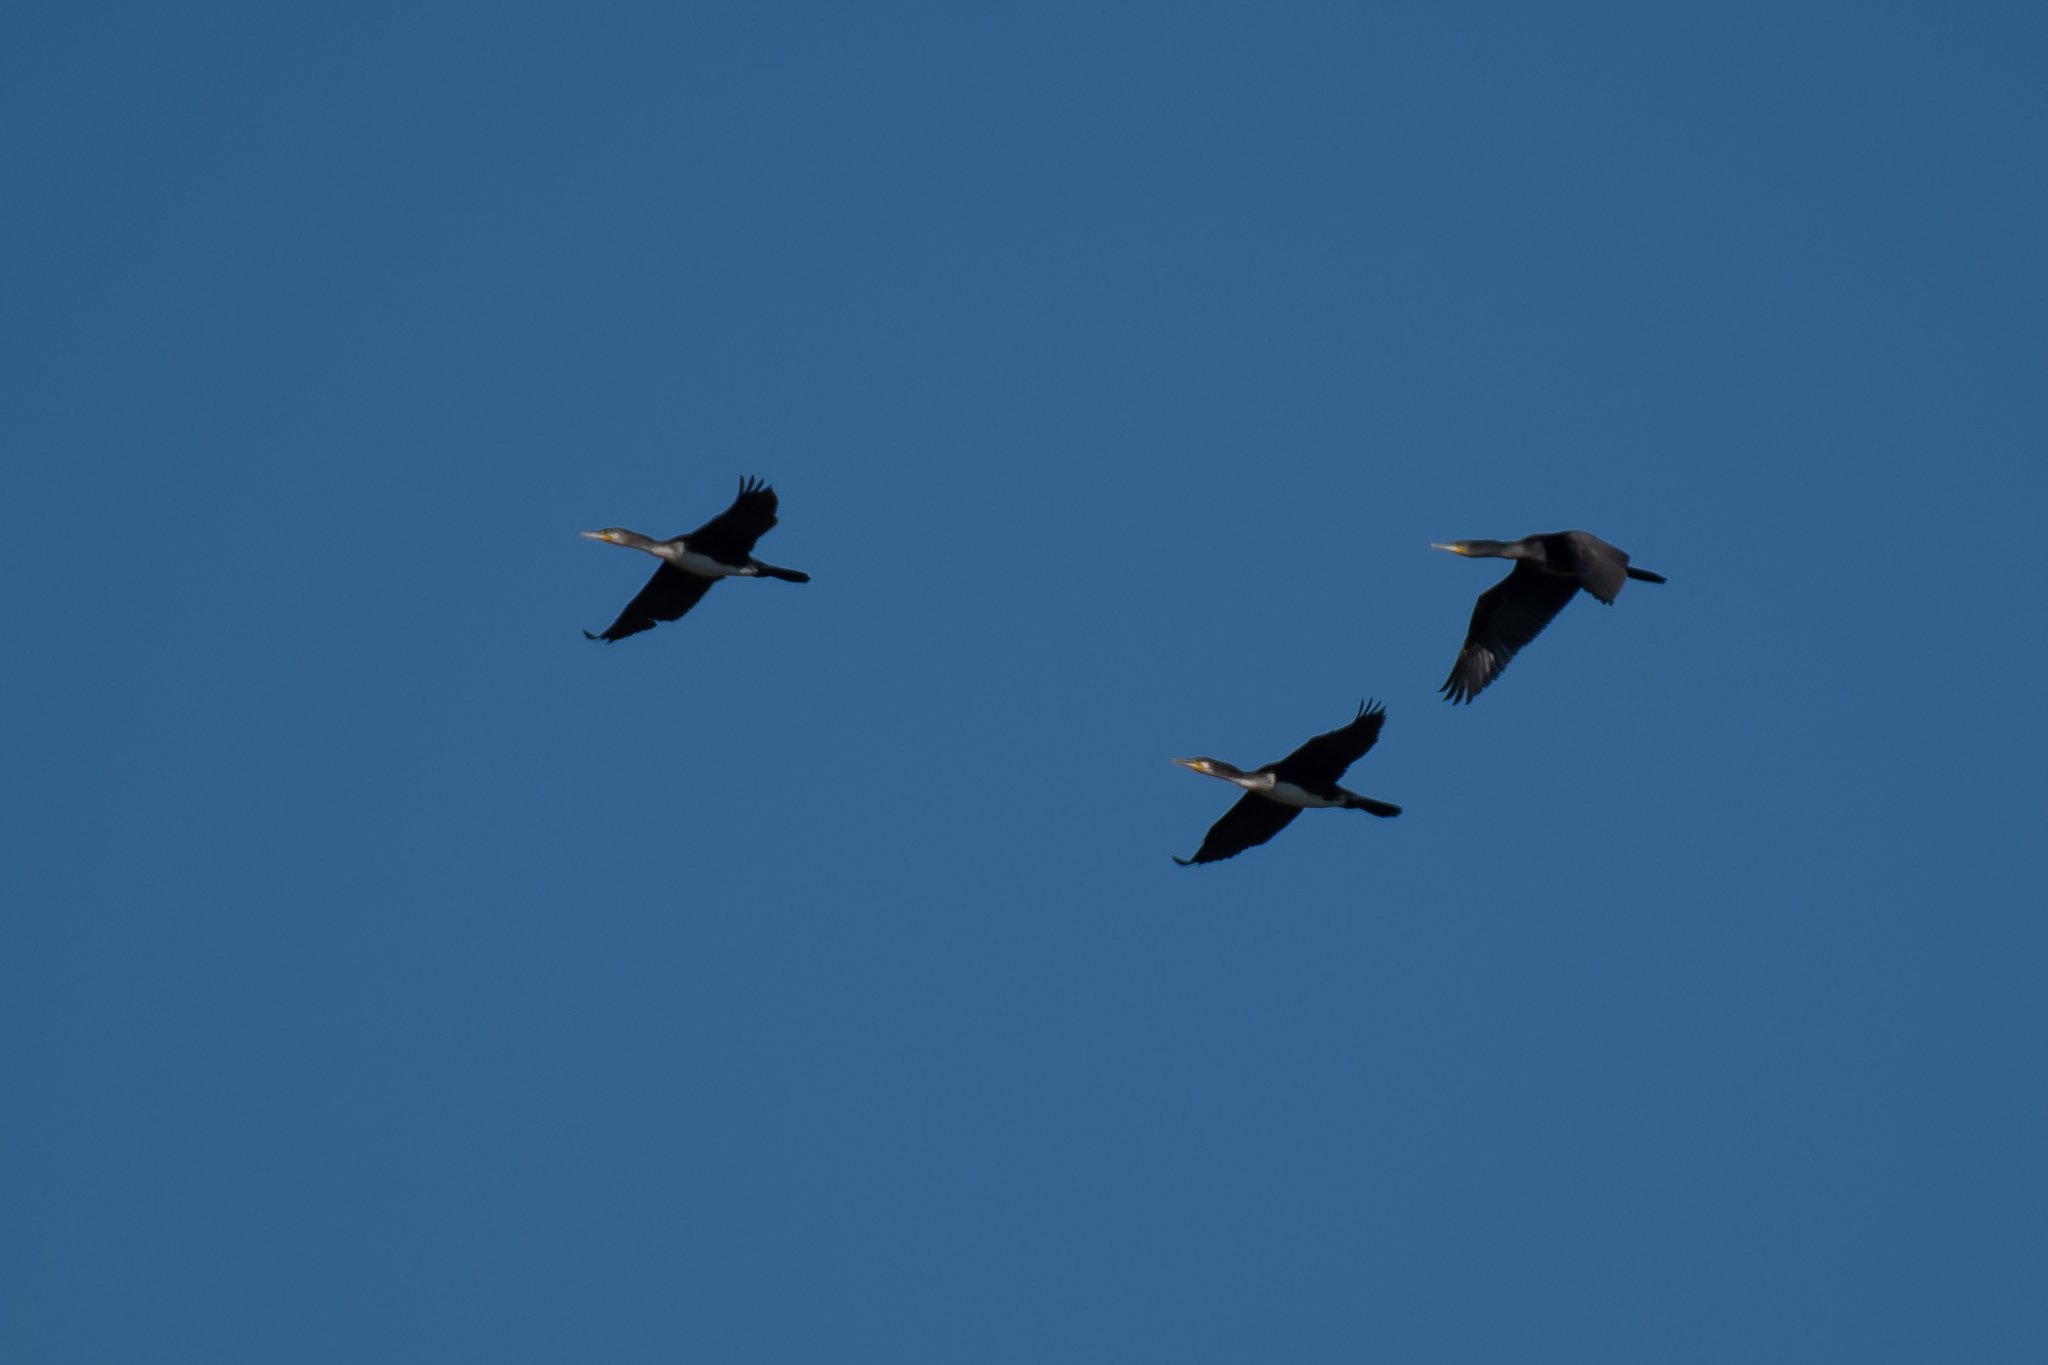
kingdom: Animalia
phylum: Chordata
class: Aves
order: Suliformes
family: Phalacrocoracidae
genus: Phalacrocorax
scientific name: Phalacrocorax carbo
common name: Great cormorant
